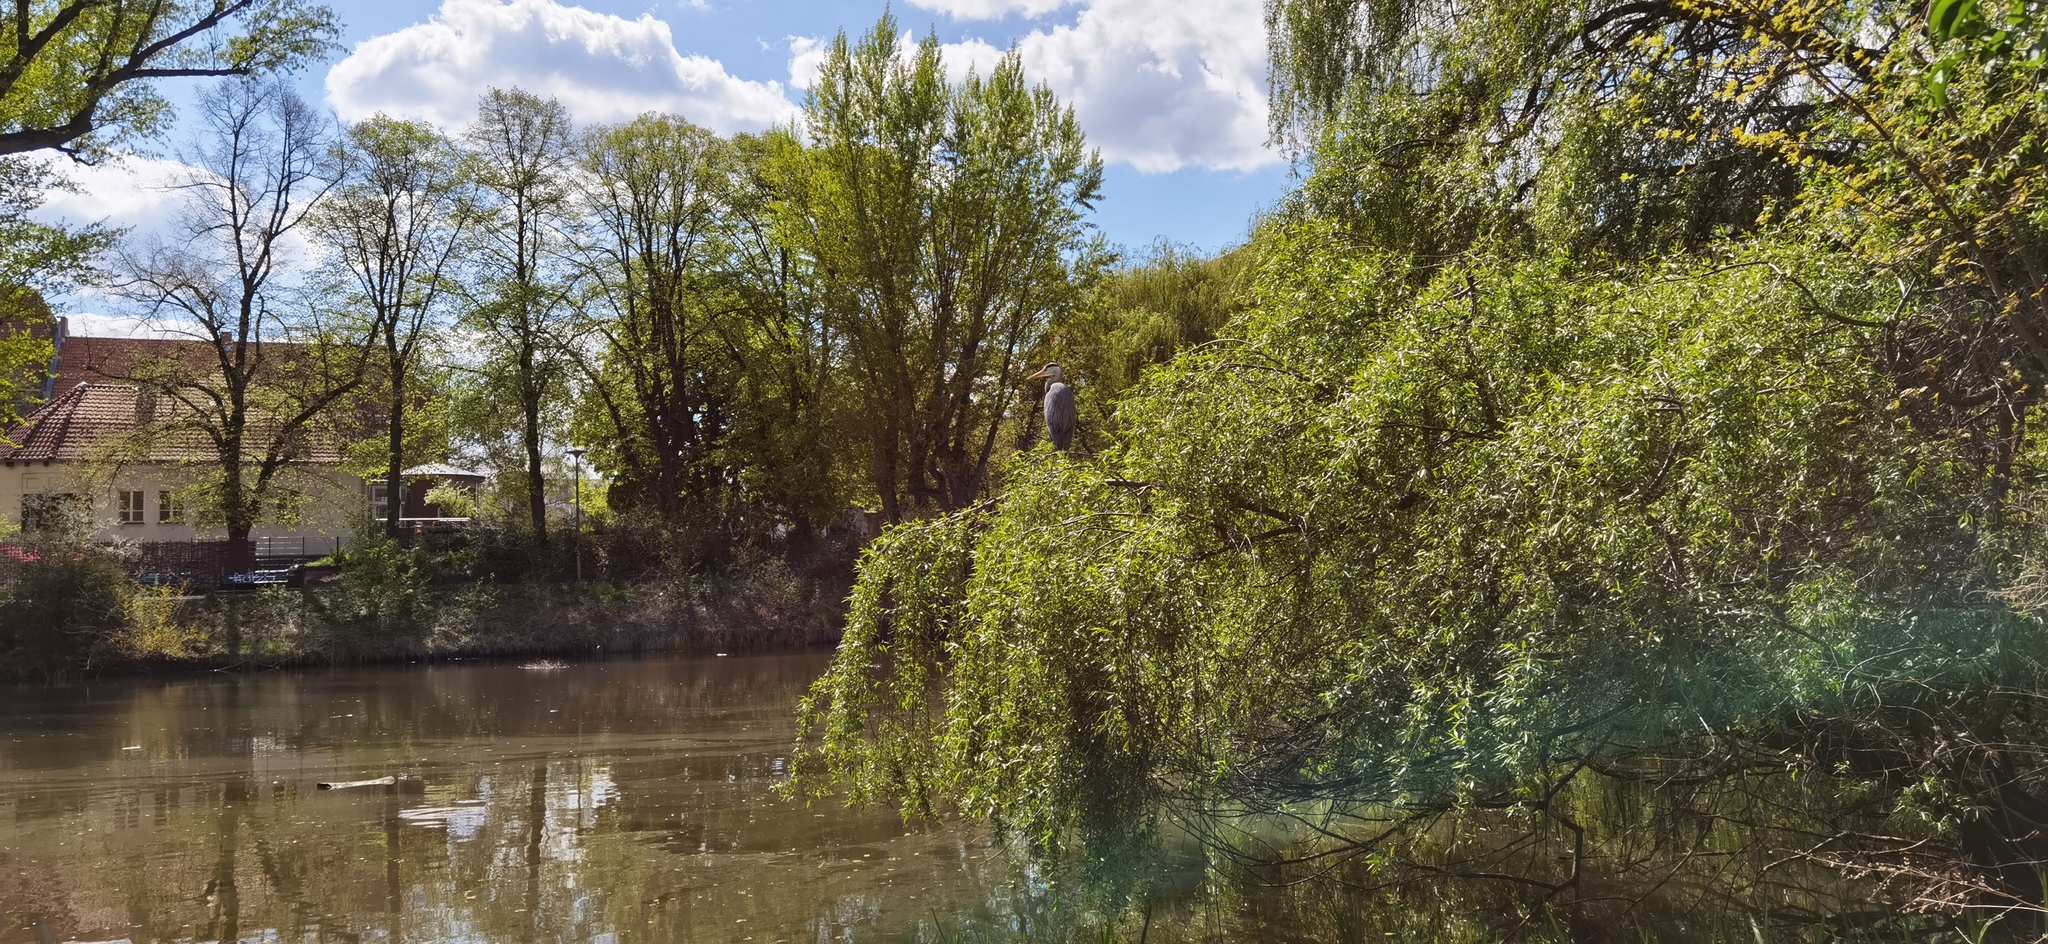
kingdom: Animalia
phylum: Chordata
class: Aves
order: Pelecaniformes
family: Ardeidae
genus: Ardea
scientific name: Ardea cinerea
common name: Grey heron
